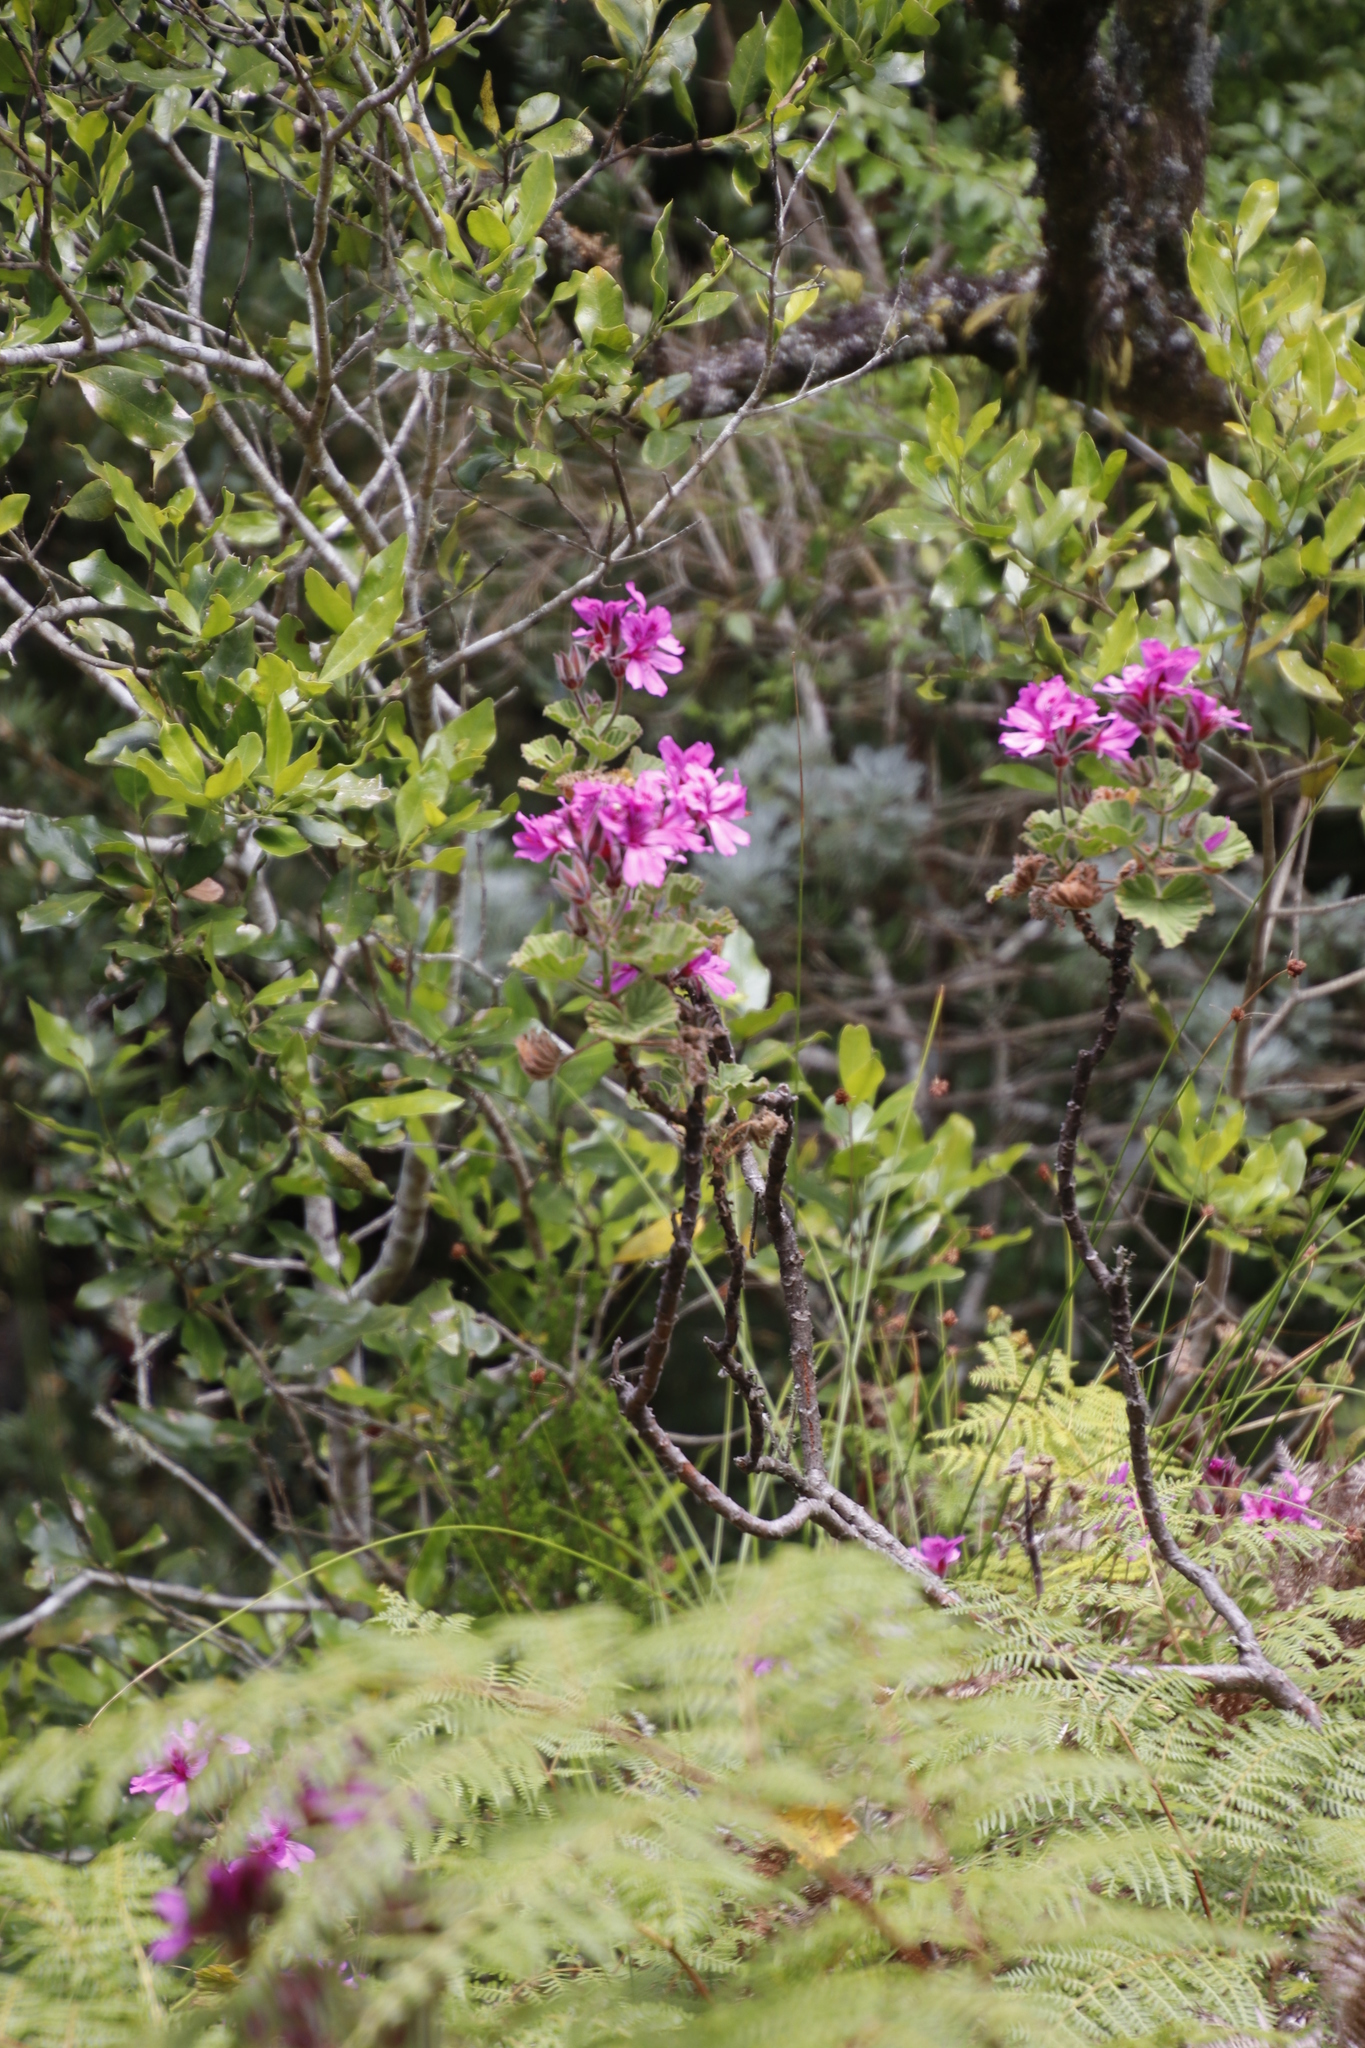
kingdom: Plantae
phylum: Tracheophyta
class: Magnoliopsida
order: Geraniales
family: Geraniaceae
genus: Pelargonium
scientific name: Pelargonium cucullatum
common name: Tree pelargonium
